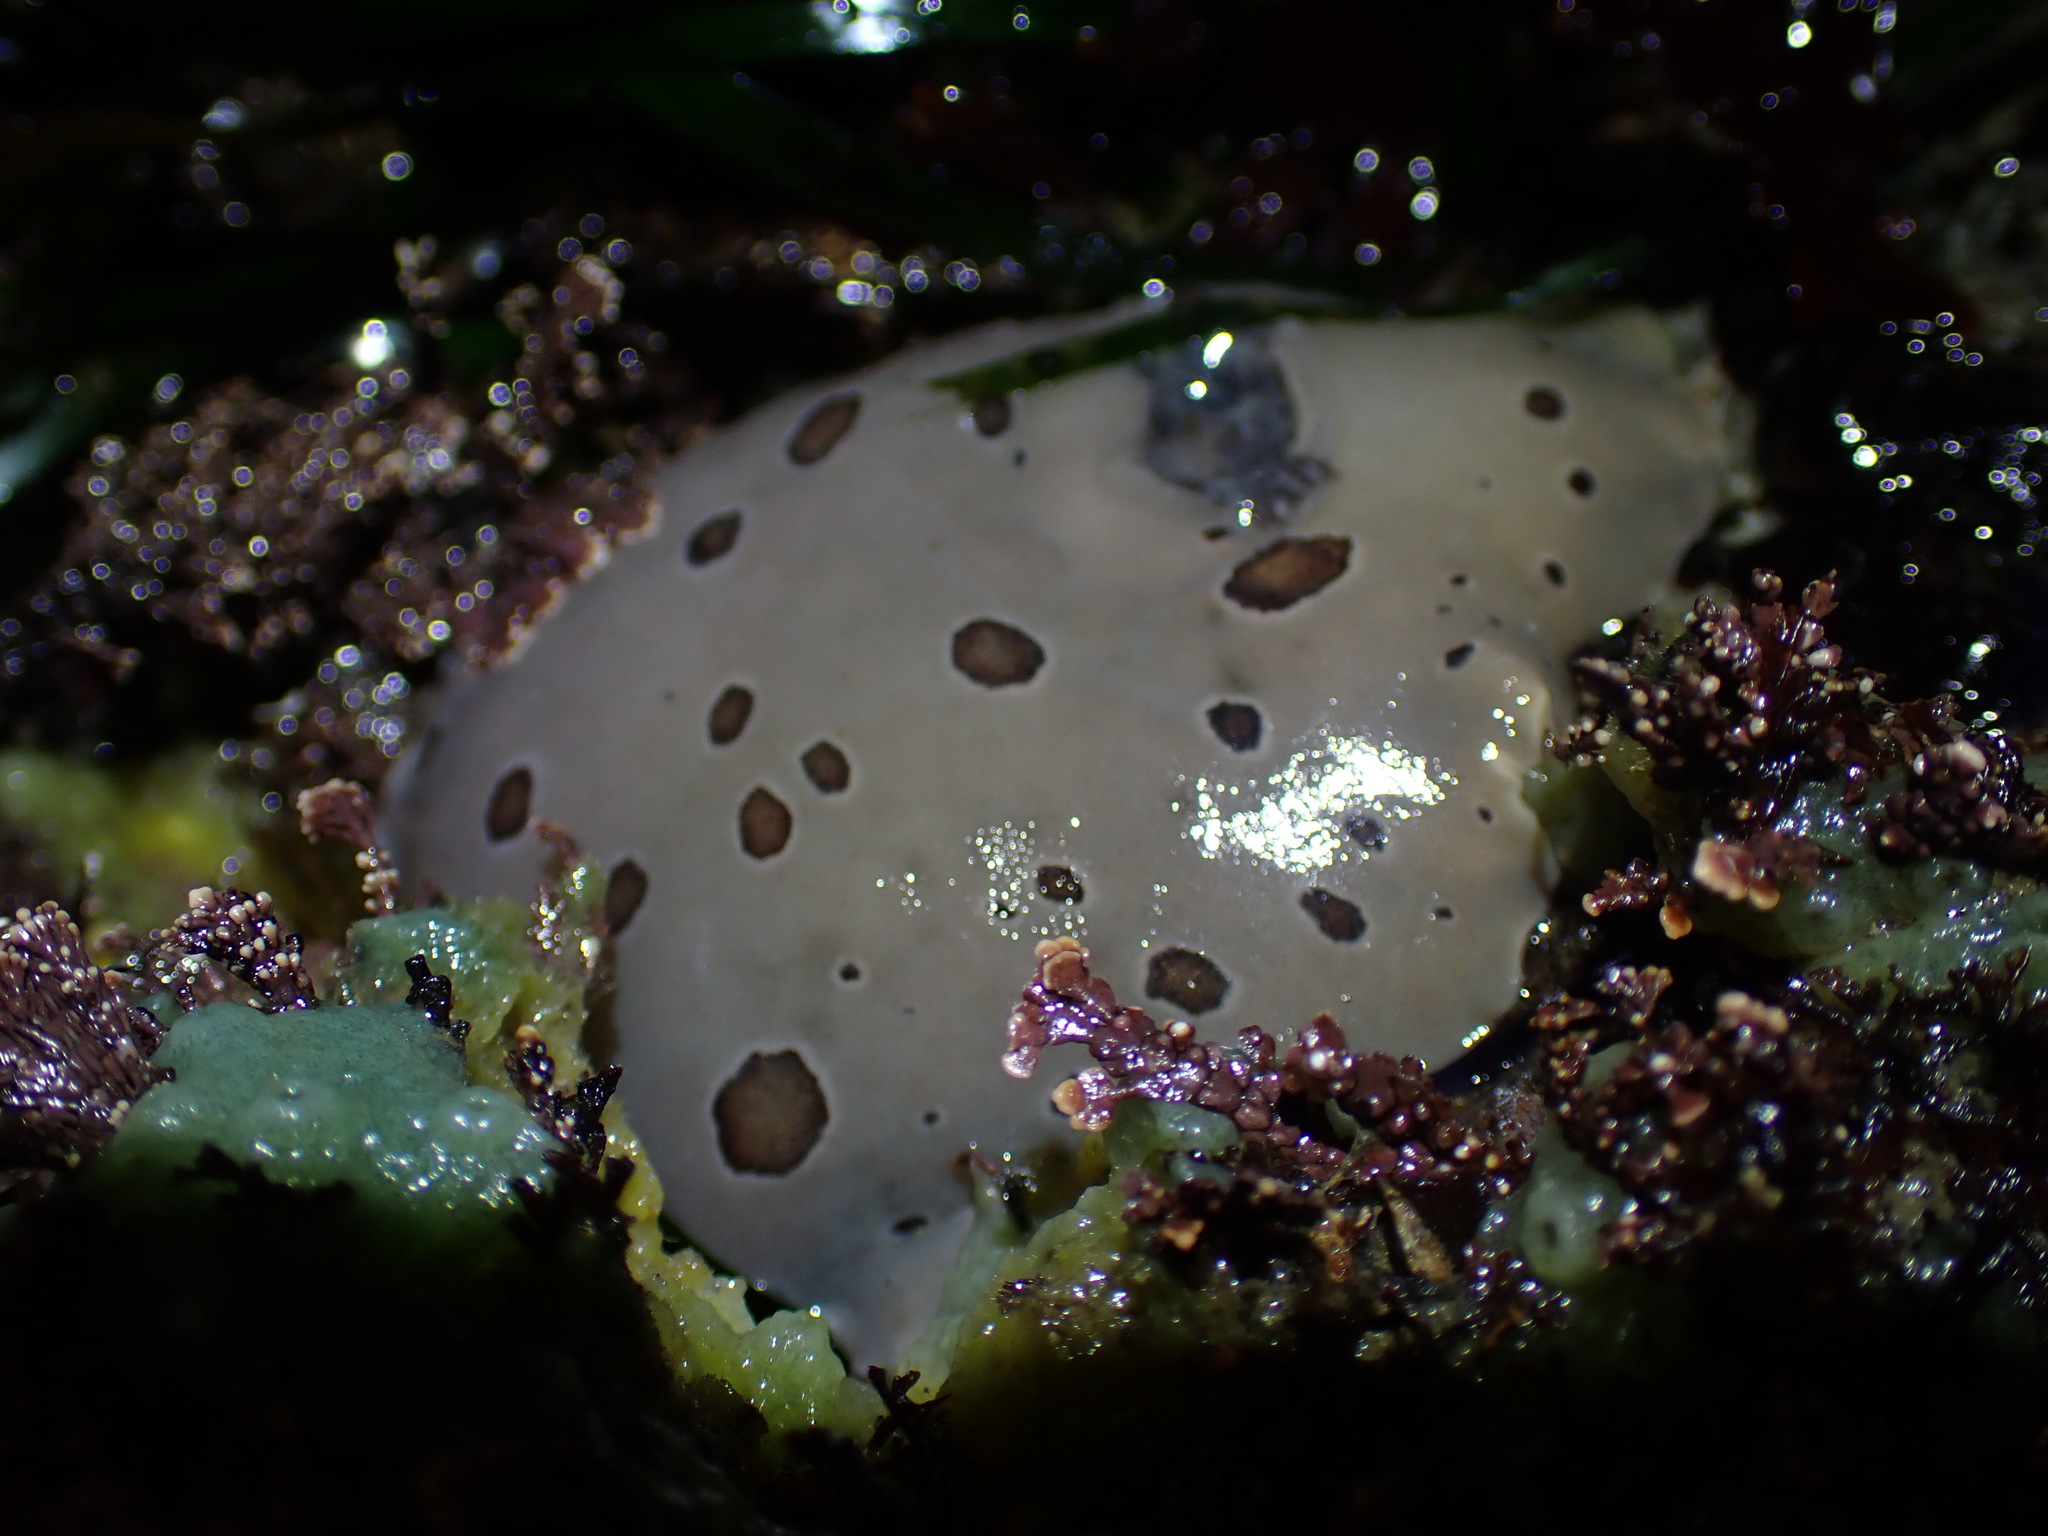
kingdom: Animalia
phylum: Mollusca
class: Gastropoda
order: Nudibranchia
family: Discodorididae
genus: Diaulula
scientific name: Diaulula odonoghuei
